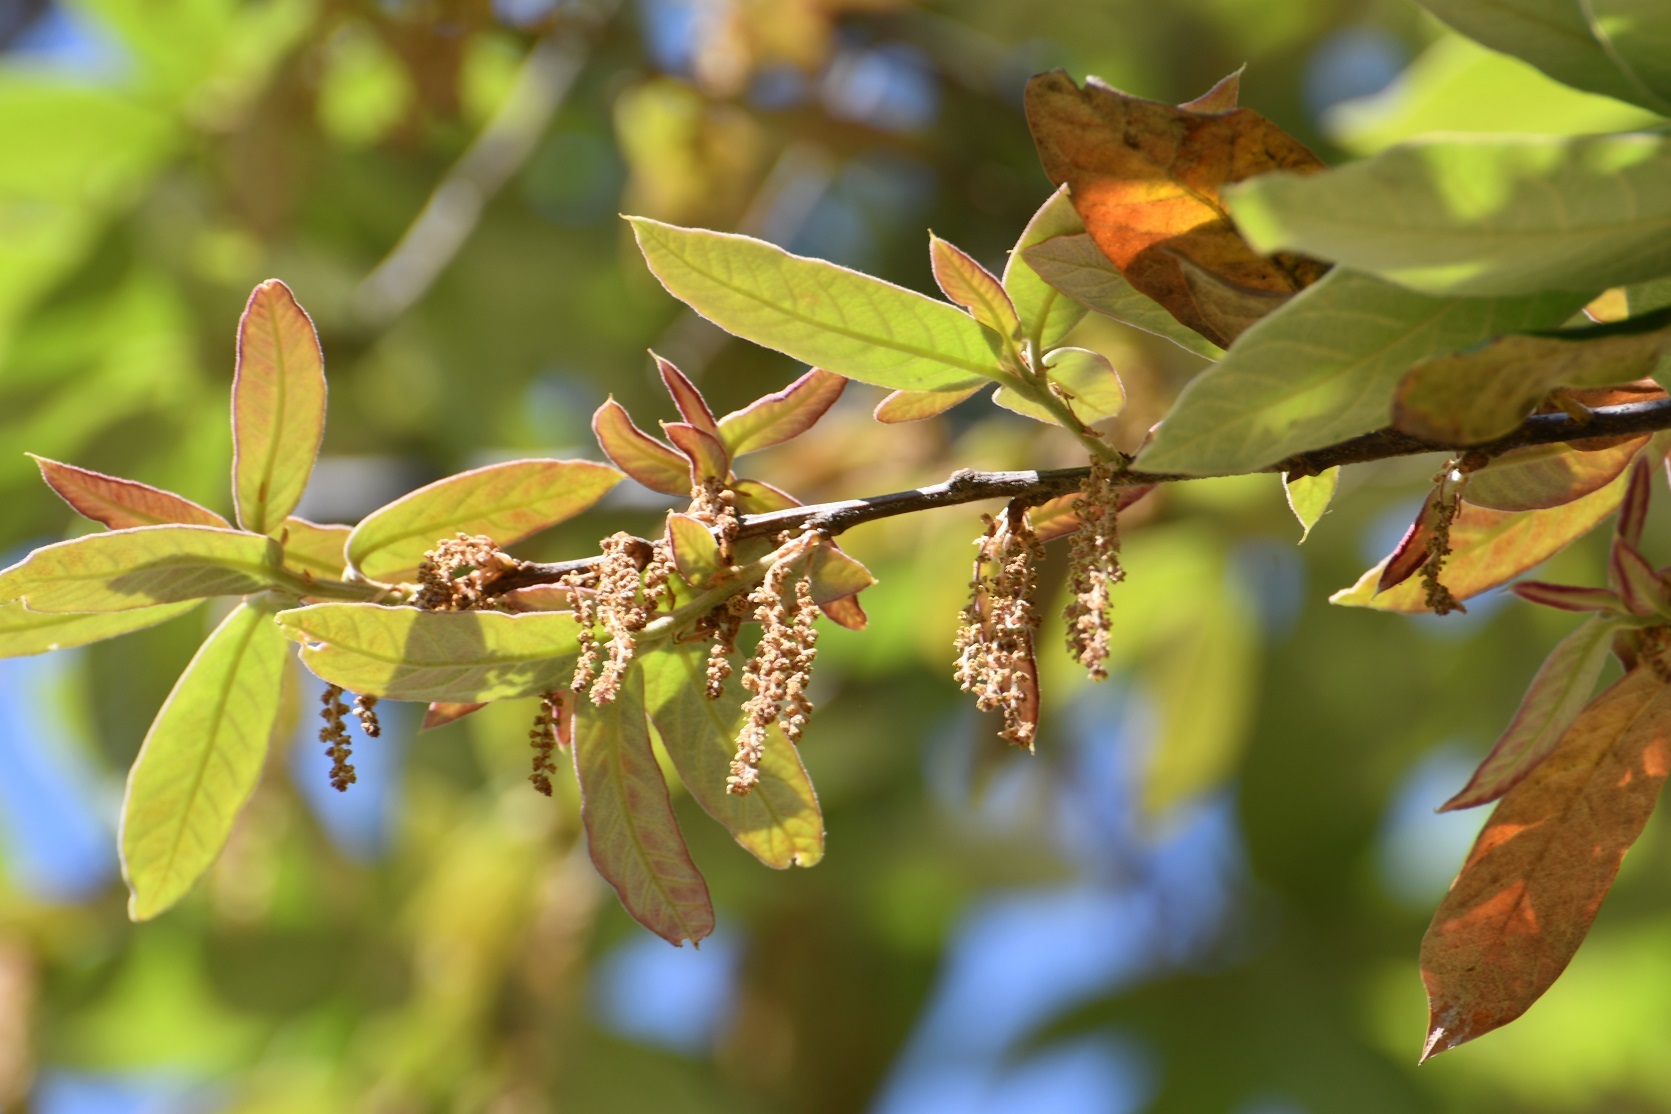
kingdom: Plantae
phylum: Tracheophyta
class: Magnoliopsida
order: Fagales
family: Fagaceae
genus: Quercus
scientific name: Quercus dysophylla
